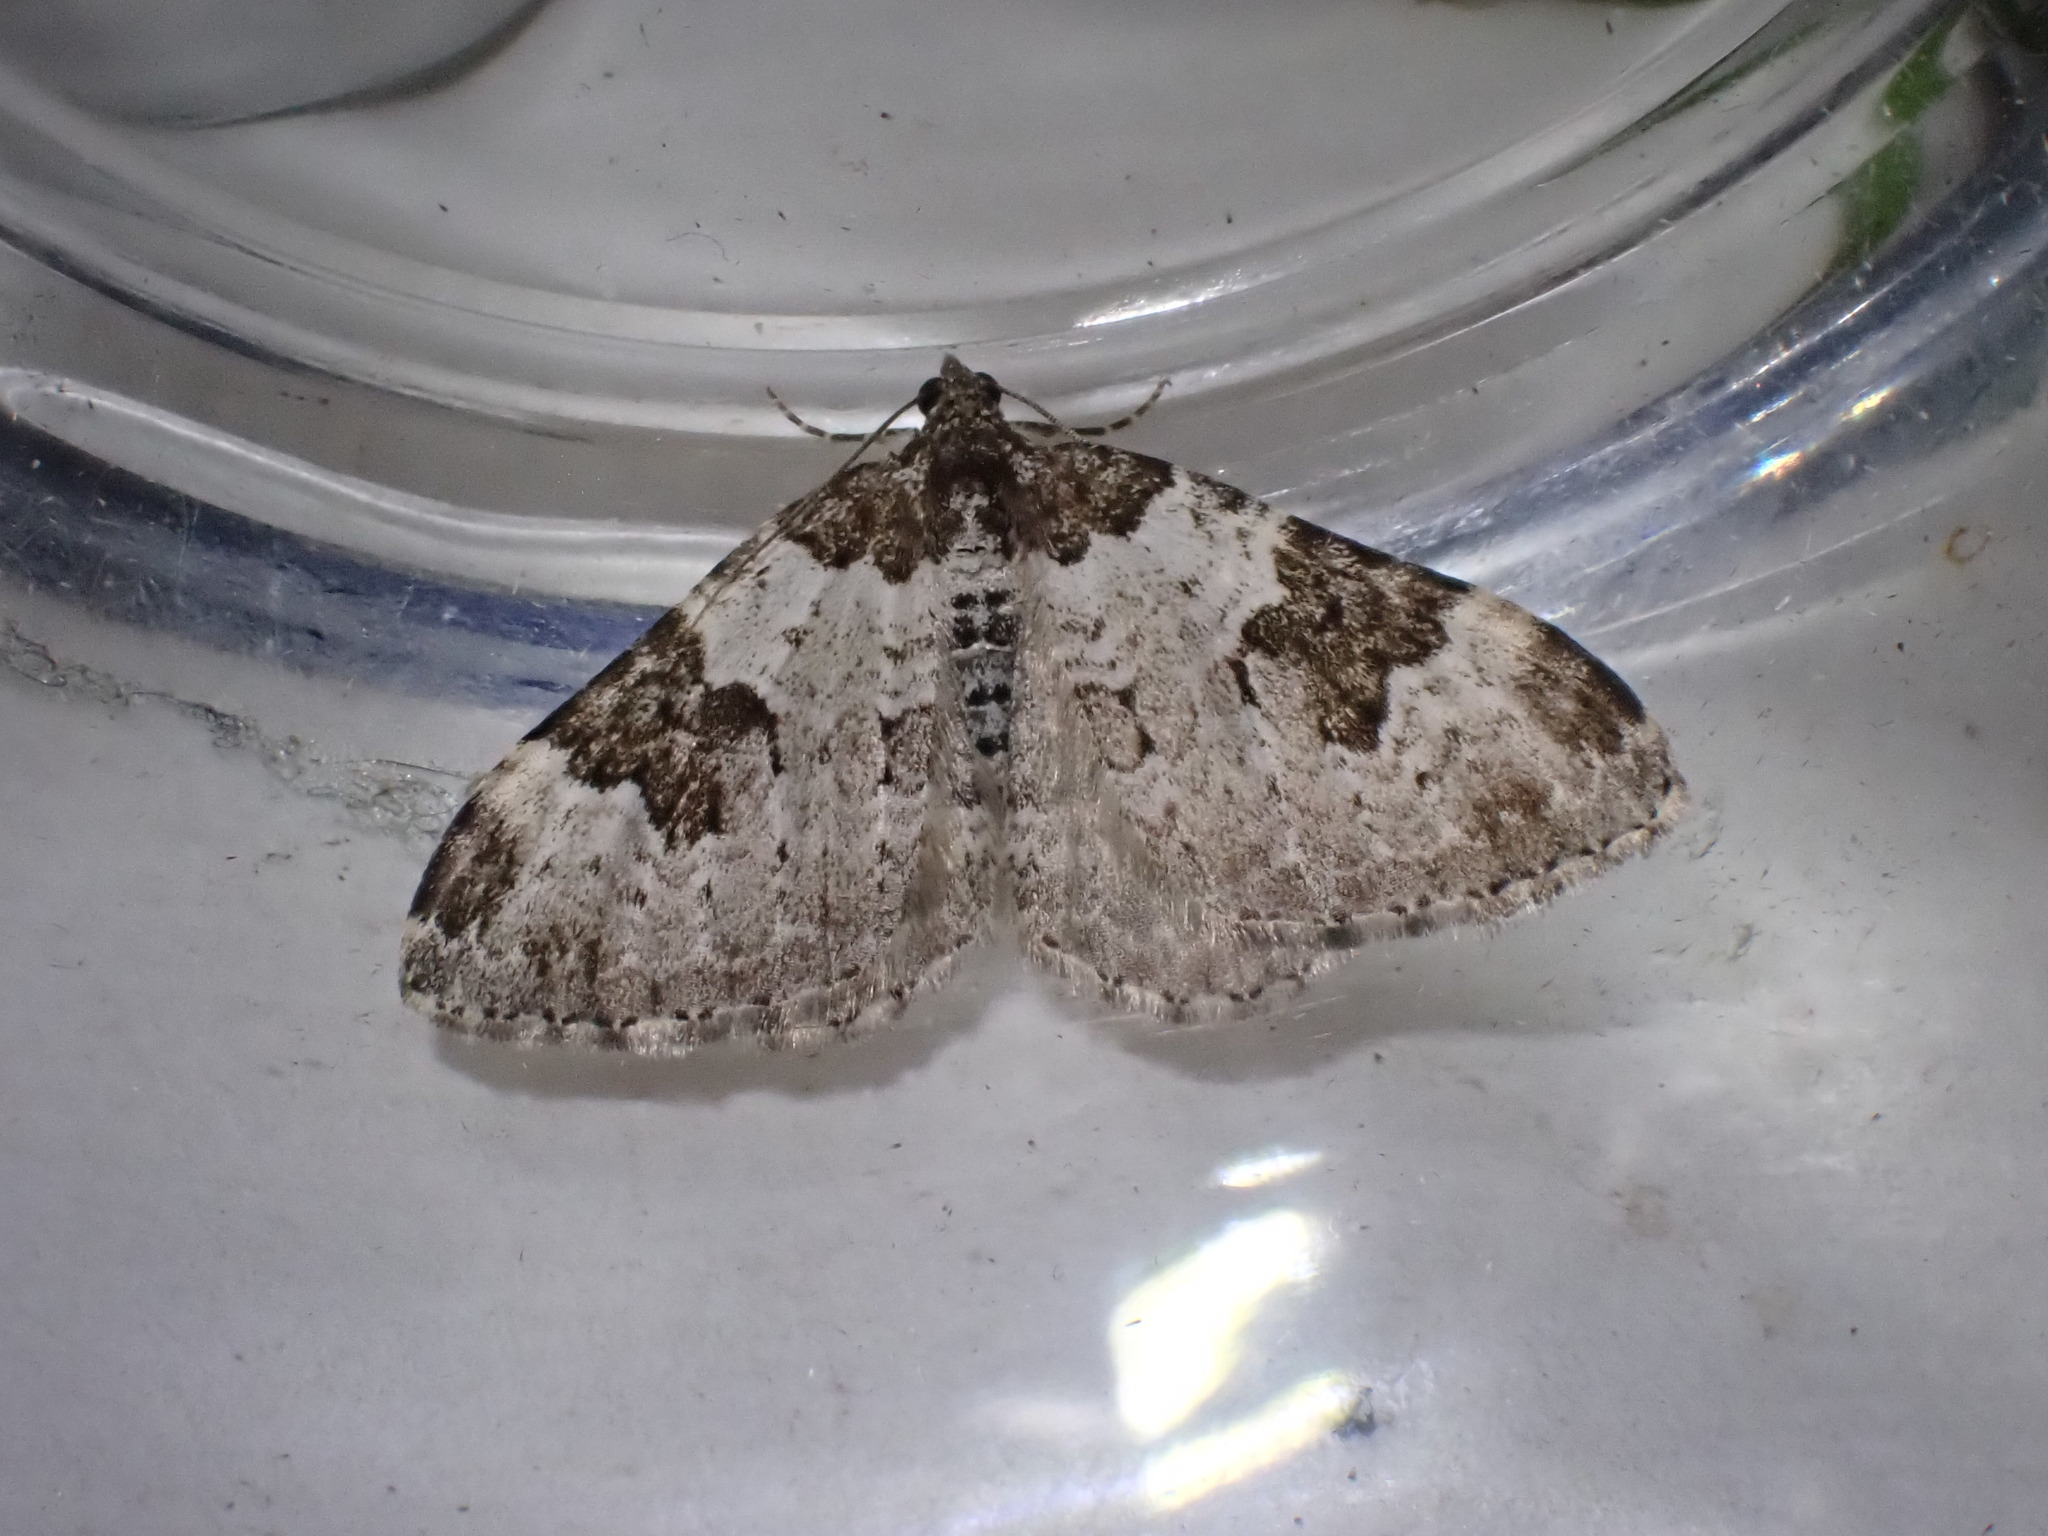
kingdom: Animalia
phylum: Arthropoda
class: Insecta
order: Lepidoptera
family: Geometridae
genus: Xanthorhoe
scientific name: Xanthorhoe fluctuata
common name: Garden carpet
